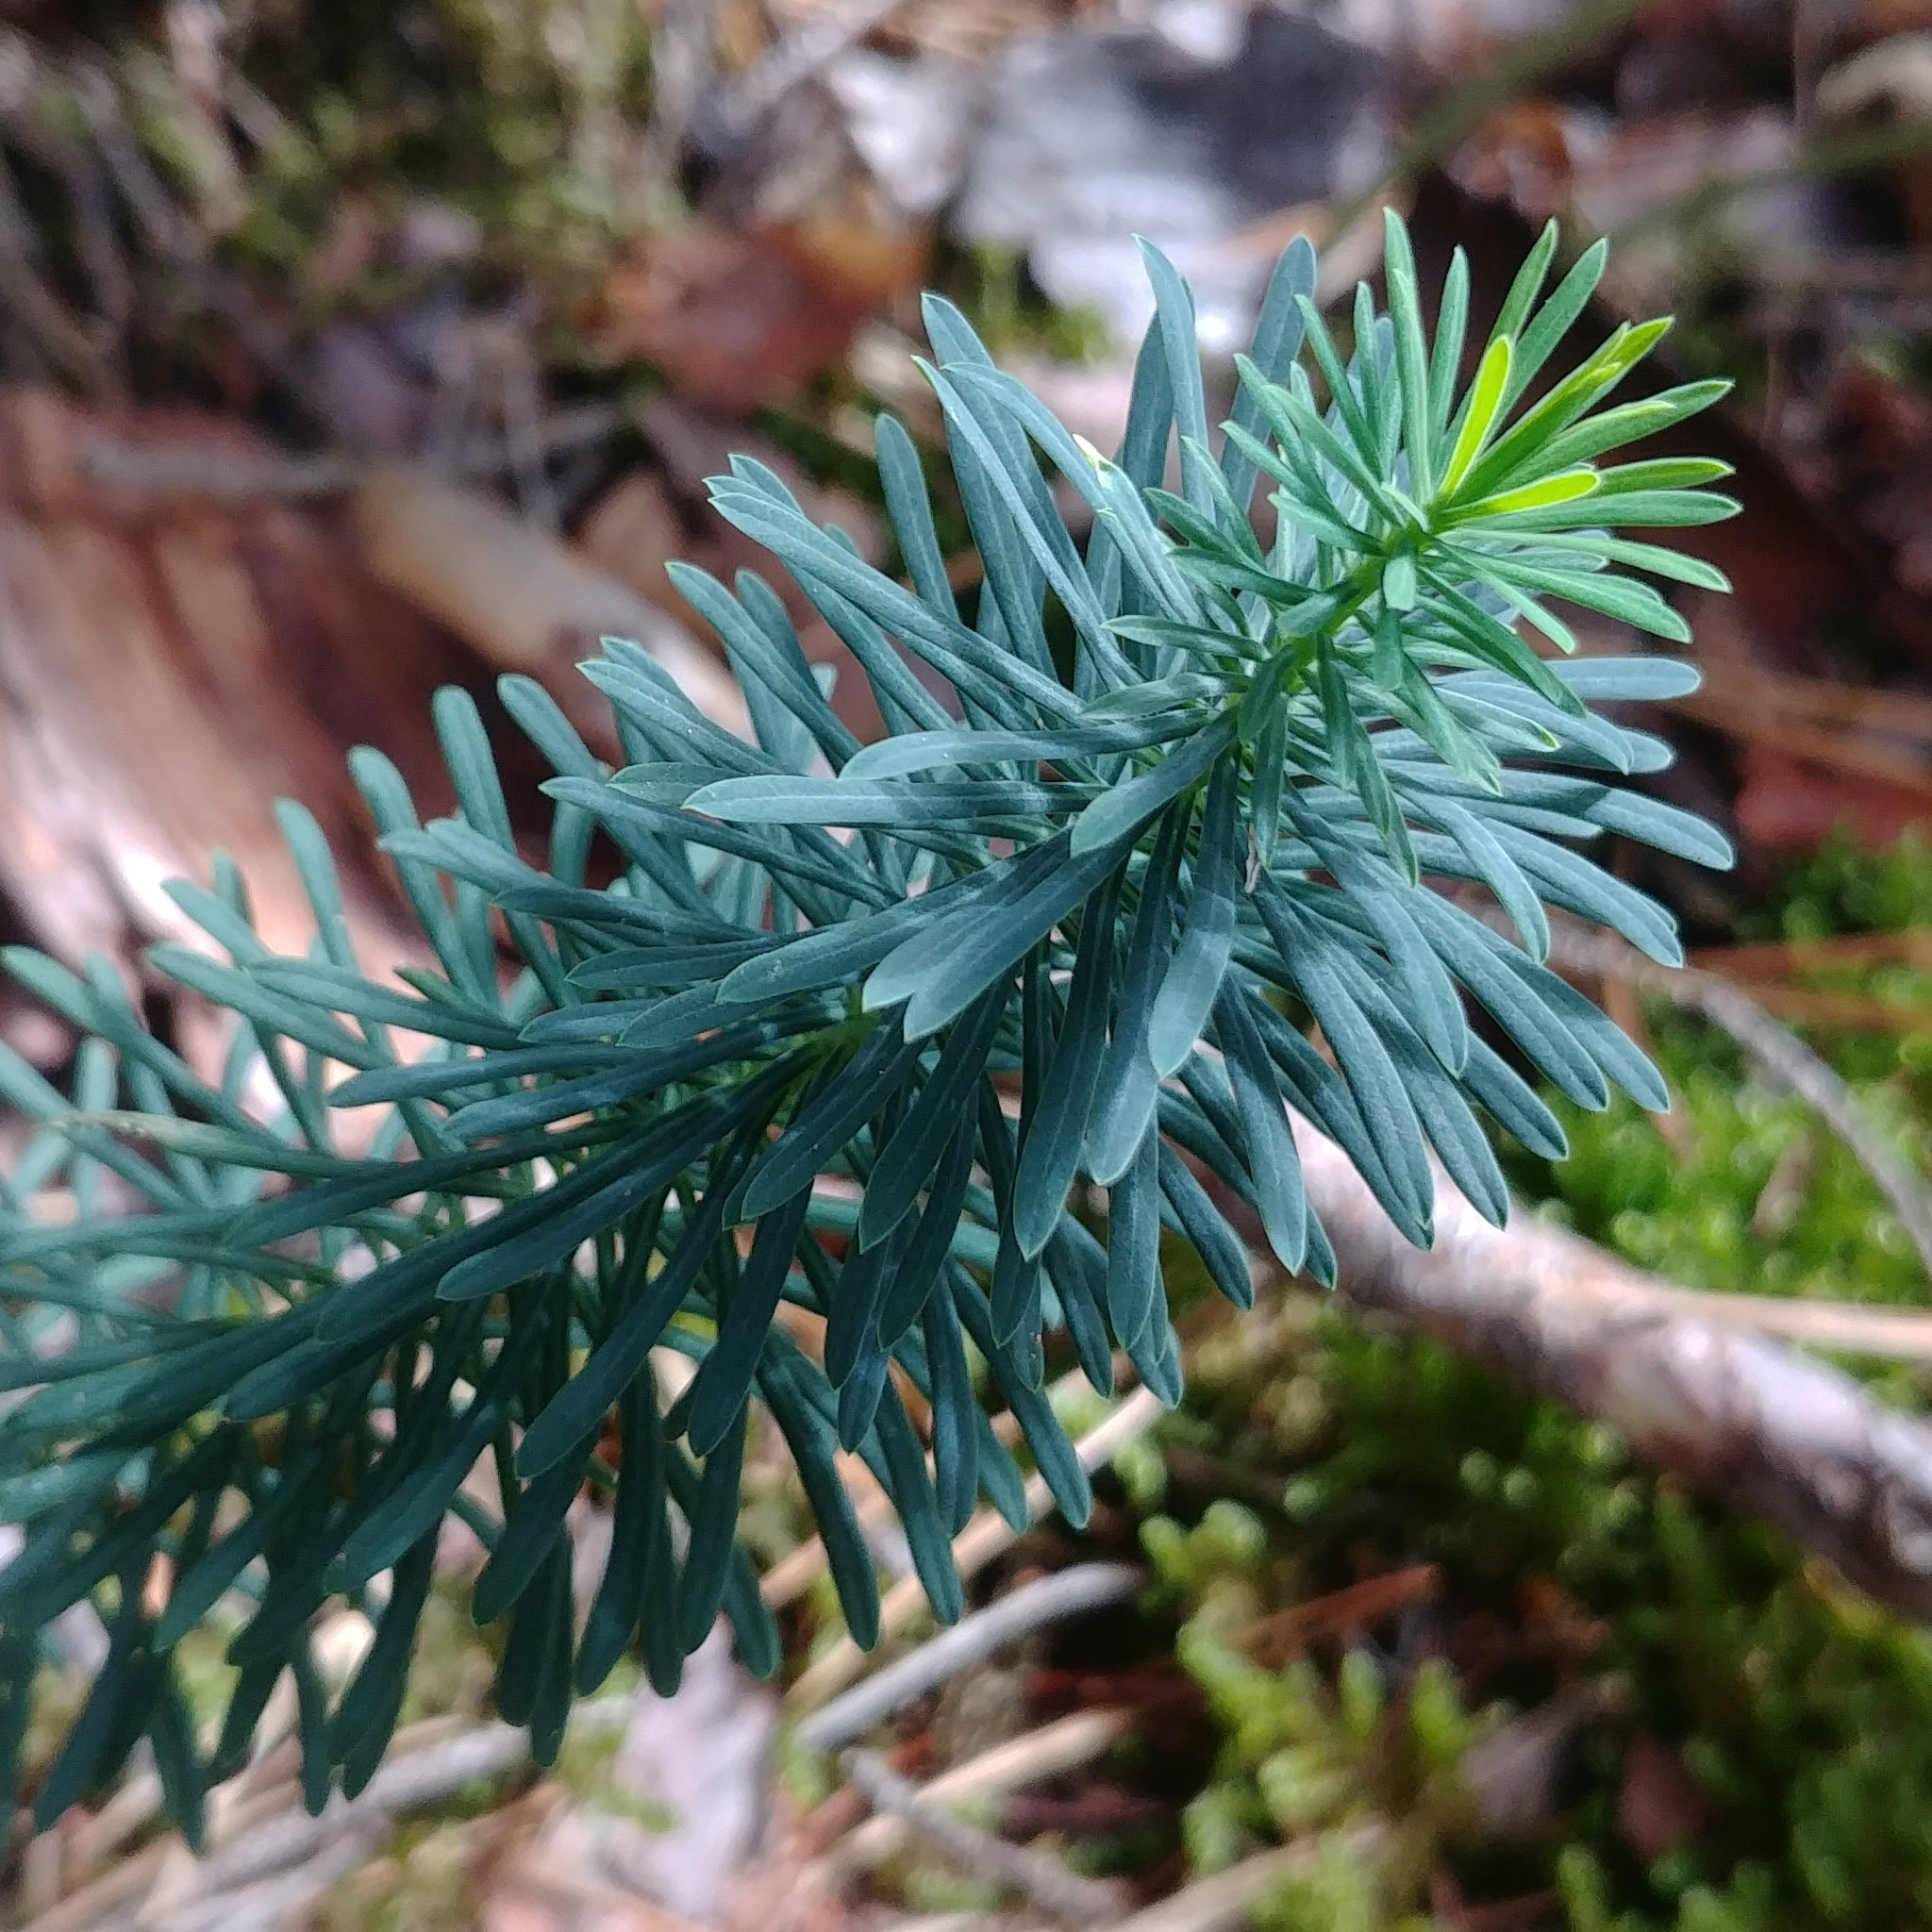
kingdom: Plantae
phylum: Tracheophyta
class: Magnoliopsida
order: Malpighiales
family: Euphorbiaceae
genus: Euphorbia
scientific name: Euphorbia cyparissias
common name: Cypress spurge
